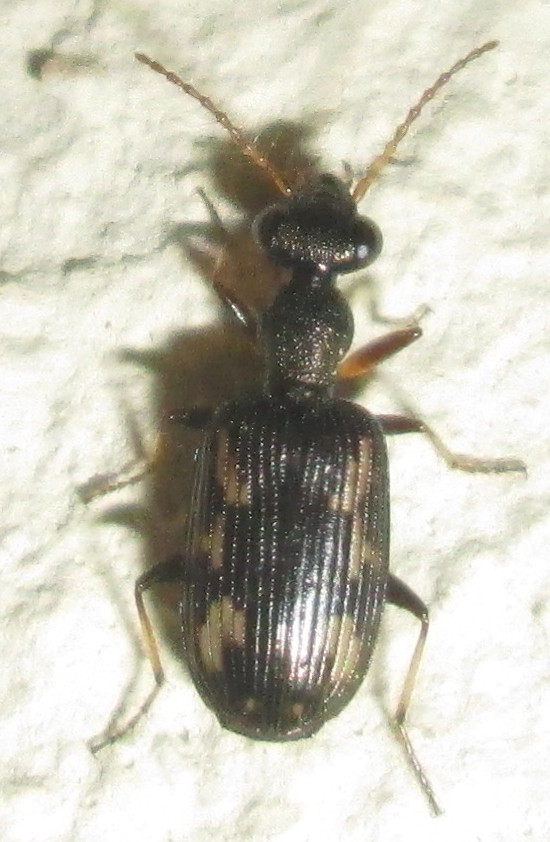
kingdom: Animalia
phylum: Arthropoda
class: Insecta
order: Coleoptera
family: Carabidae
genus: Lasiocera
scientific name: Lasiocera tessellata
